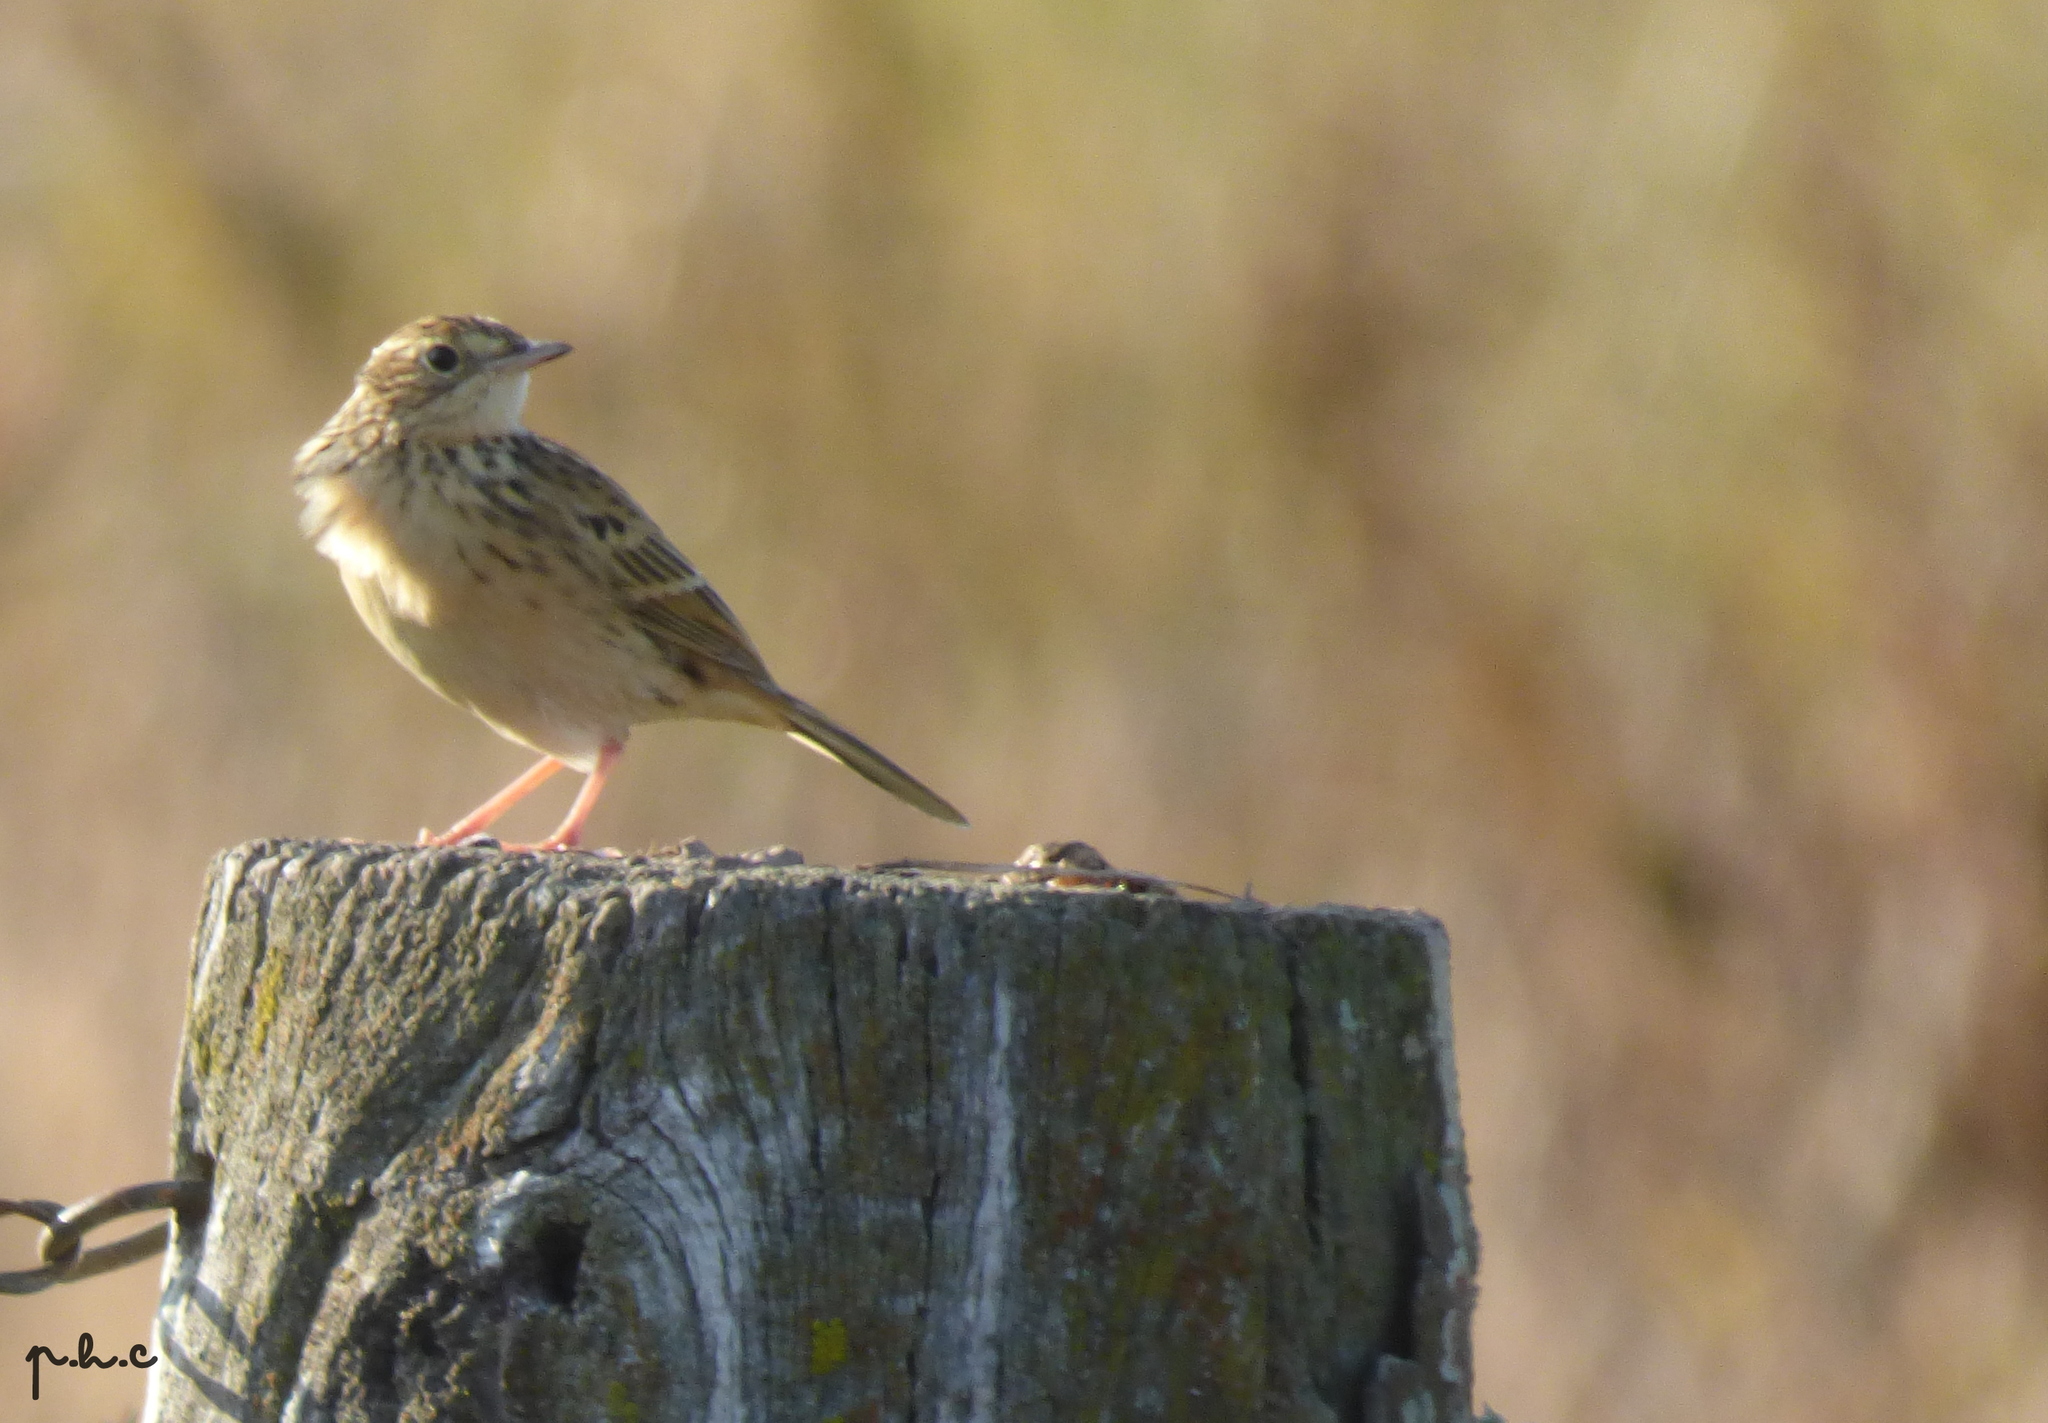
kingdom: Animalia
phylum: Chordata
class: Aves
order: Passeriformes
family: Motacillidae
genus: Anthus
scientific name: Anthus hellmayri
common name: Hellmayr's pipit
